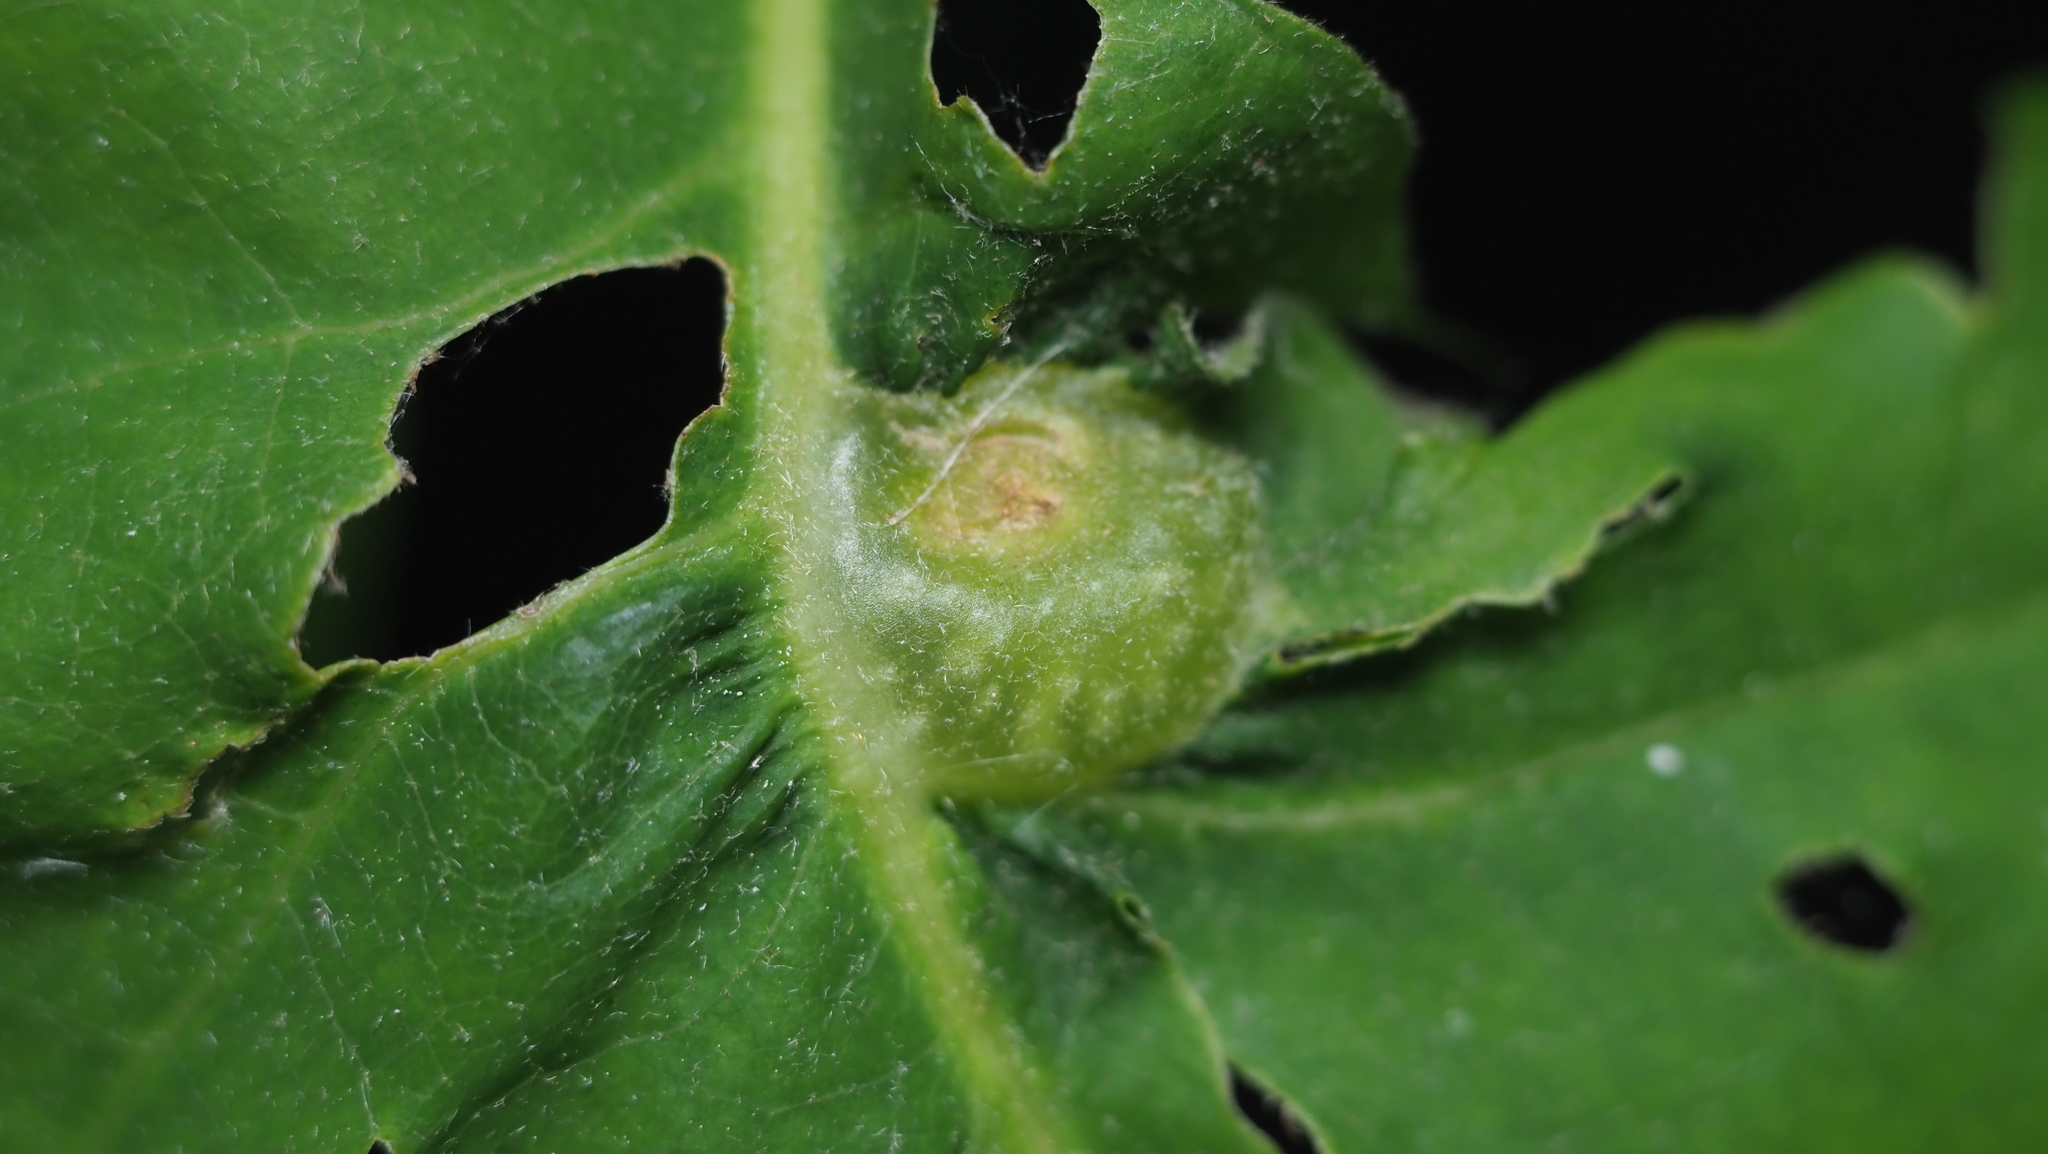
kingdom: Animalia
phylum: Arthropoda
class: Insecta
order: Hymenoptera
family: Cynipidae
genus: Dryocosmus
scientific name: Dryocosmus quercuspalustris
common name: Succulent oak gall wasp
